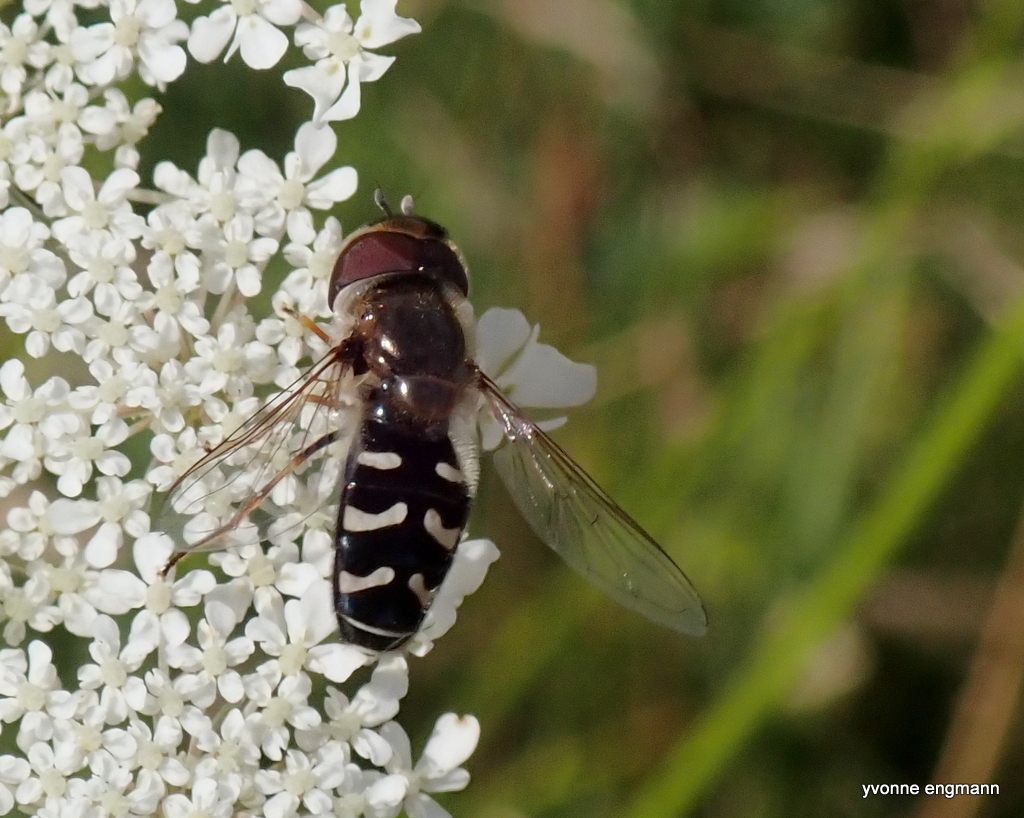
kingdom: Animalia
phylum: Arthropoda
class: Insecta
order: Diptera
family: Syrphidae
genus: Scaeva
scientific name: Scaeva pyrastri
